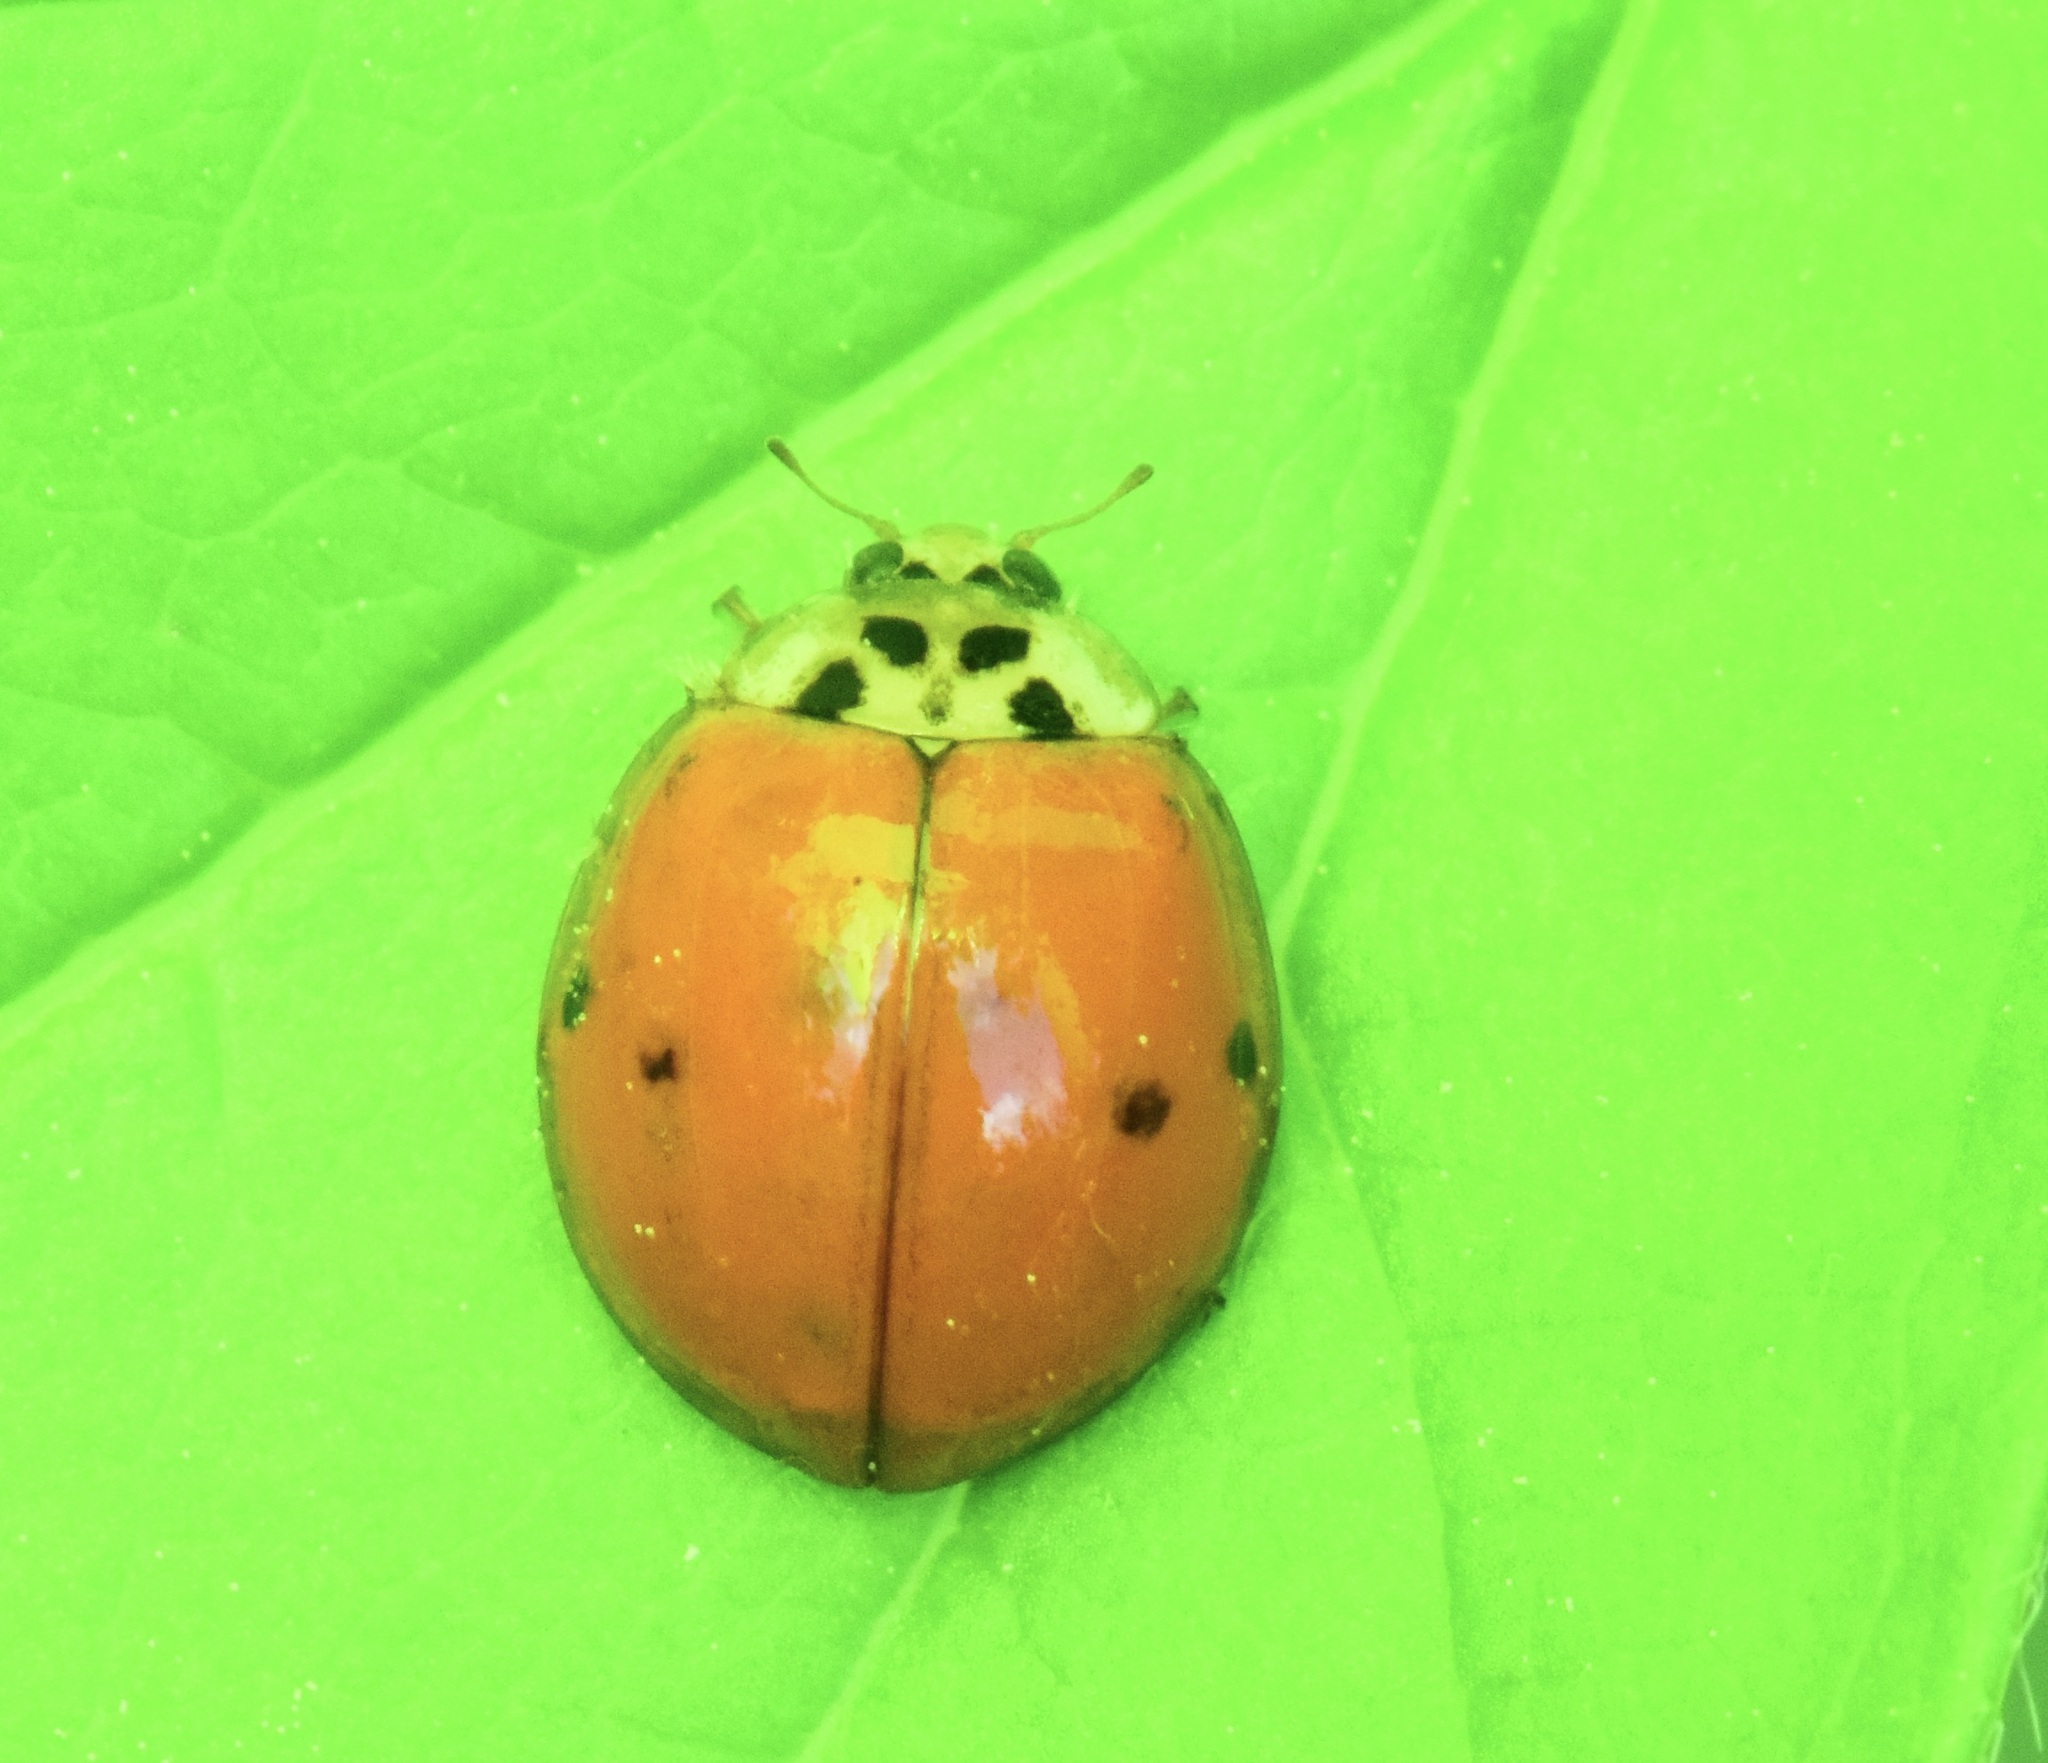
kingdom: Animalia
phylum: Arthropoda
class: Insecta
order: Coleoptera
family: Coccinellidae
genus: Harmonia
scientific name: Harmonia axyridis
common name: Harlequin ladybird
